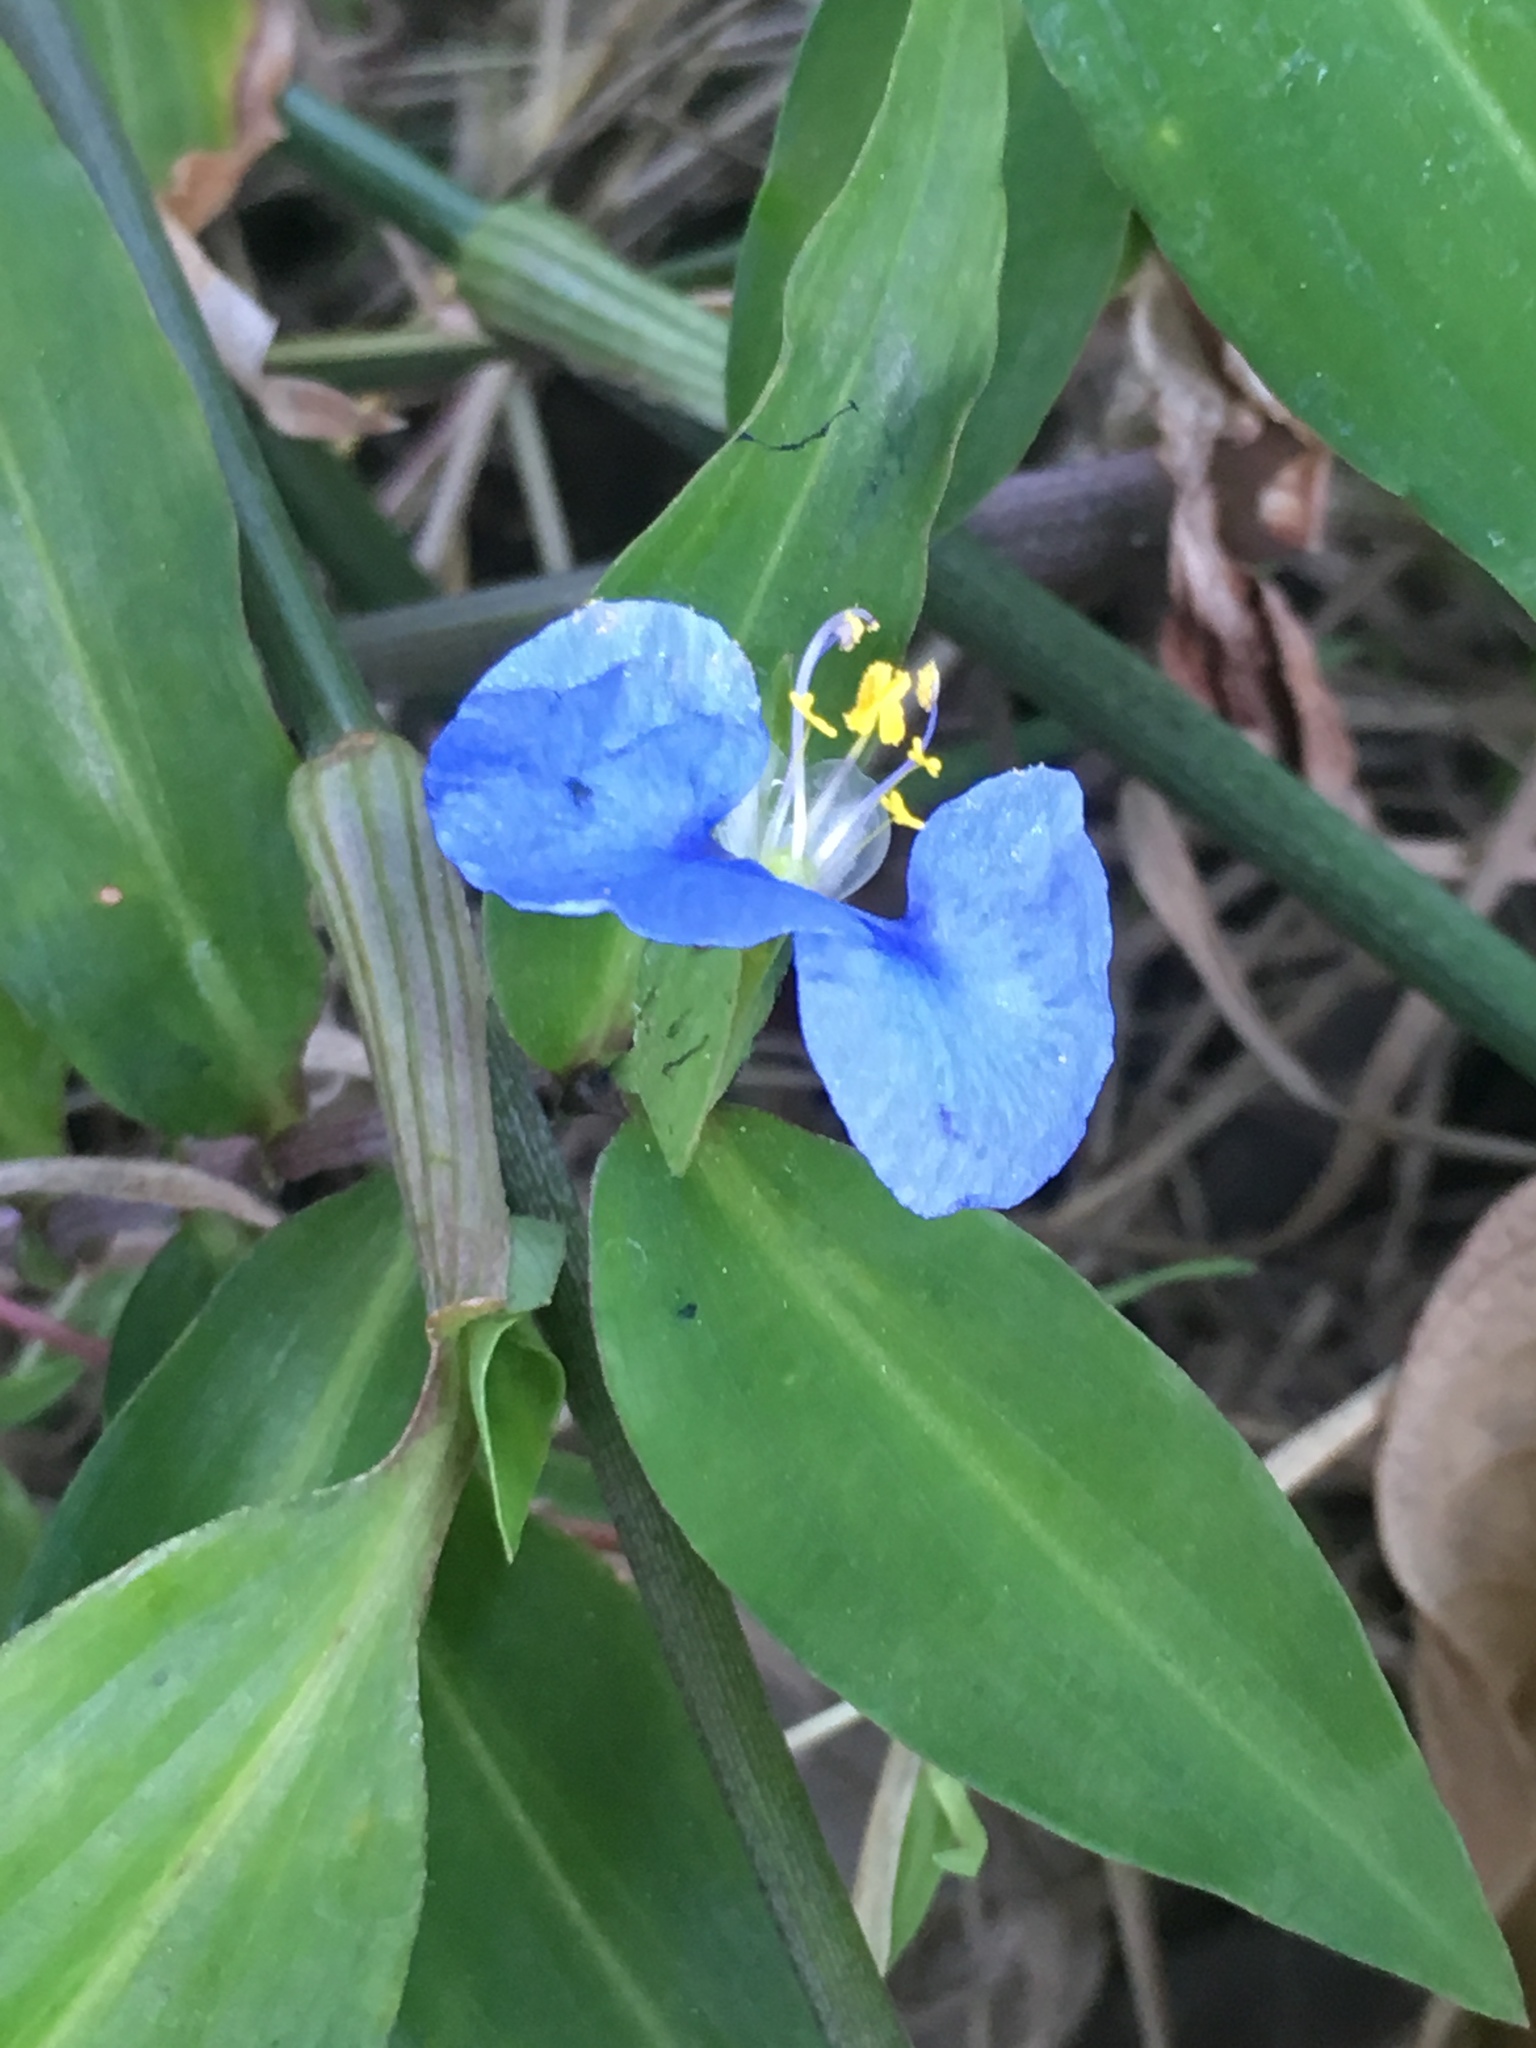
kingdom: Plantae
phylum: Tracheophyta
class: Liliopsida
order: Commelinales
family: Commelinaceae
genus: Commelina
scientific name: Commelina erecta
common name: Blousel blommetjie
